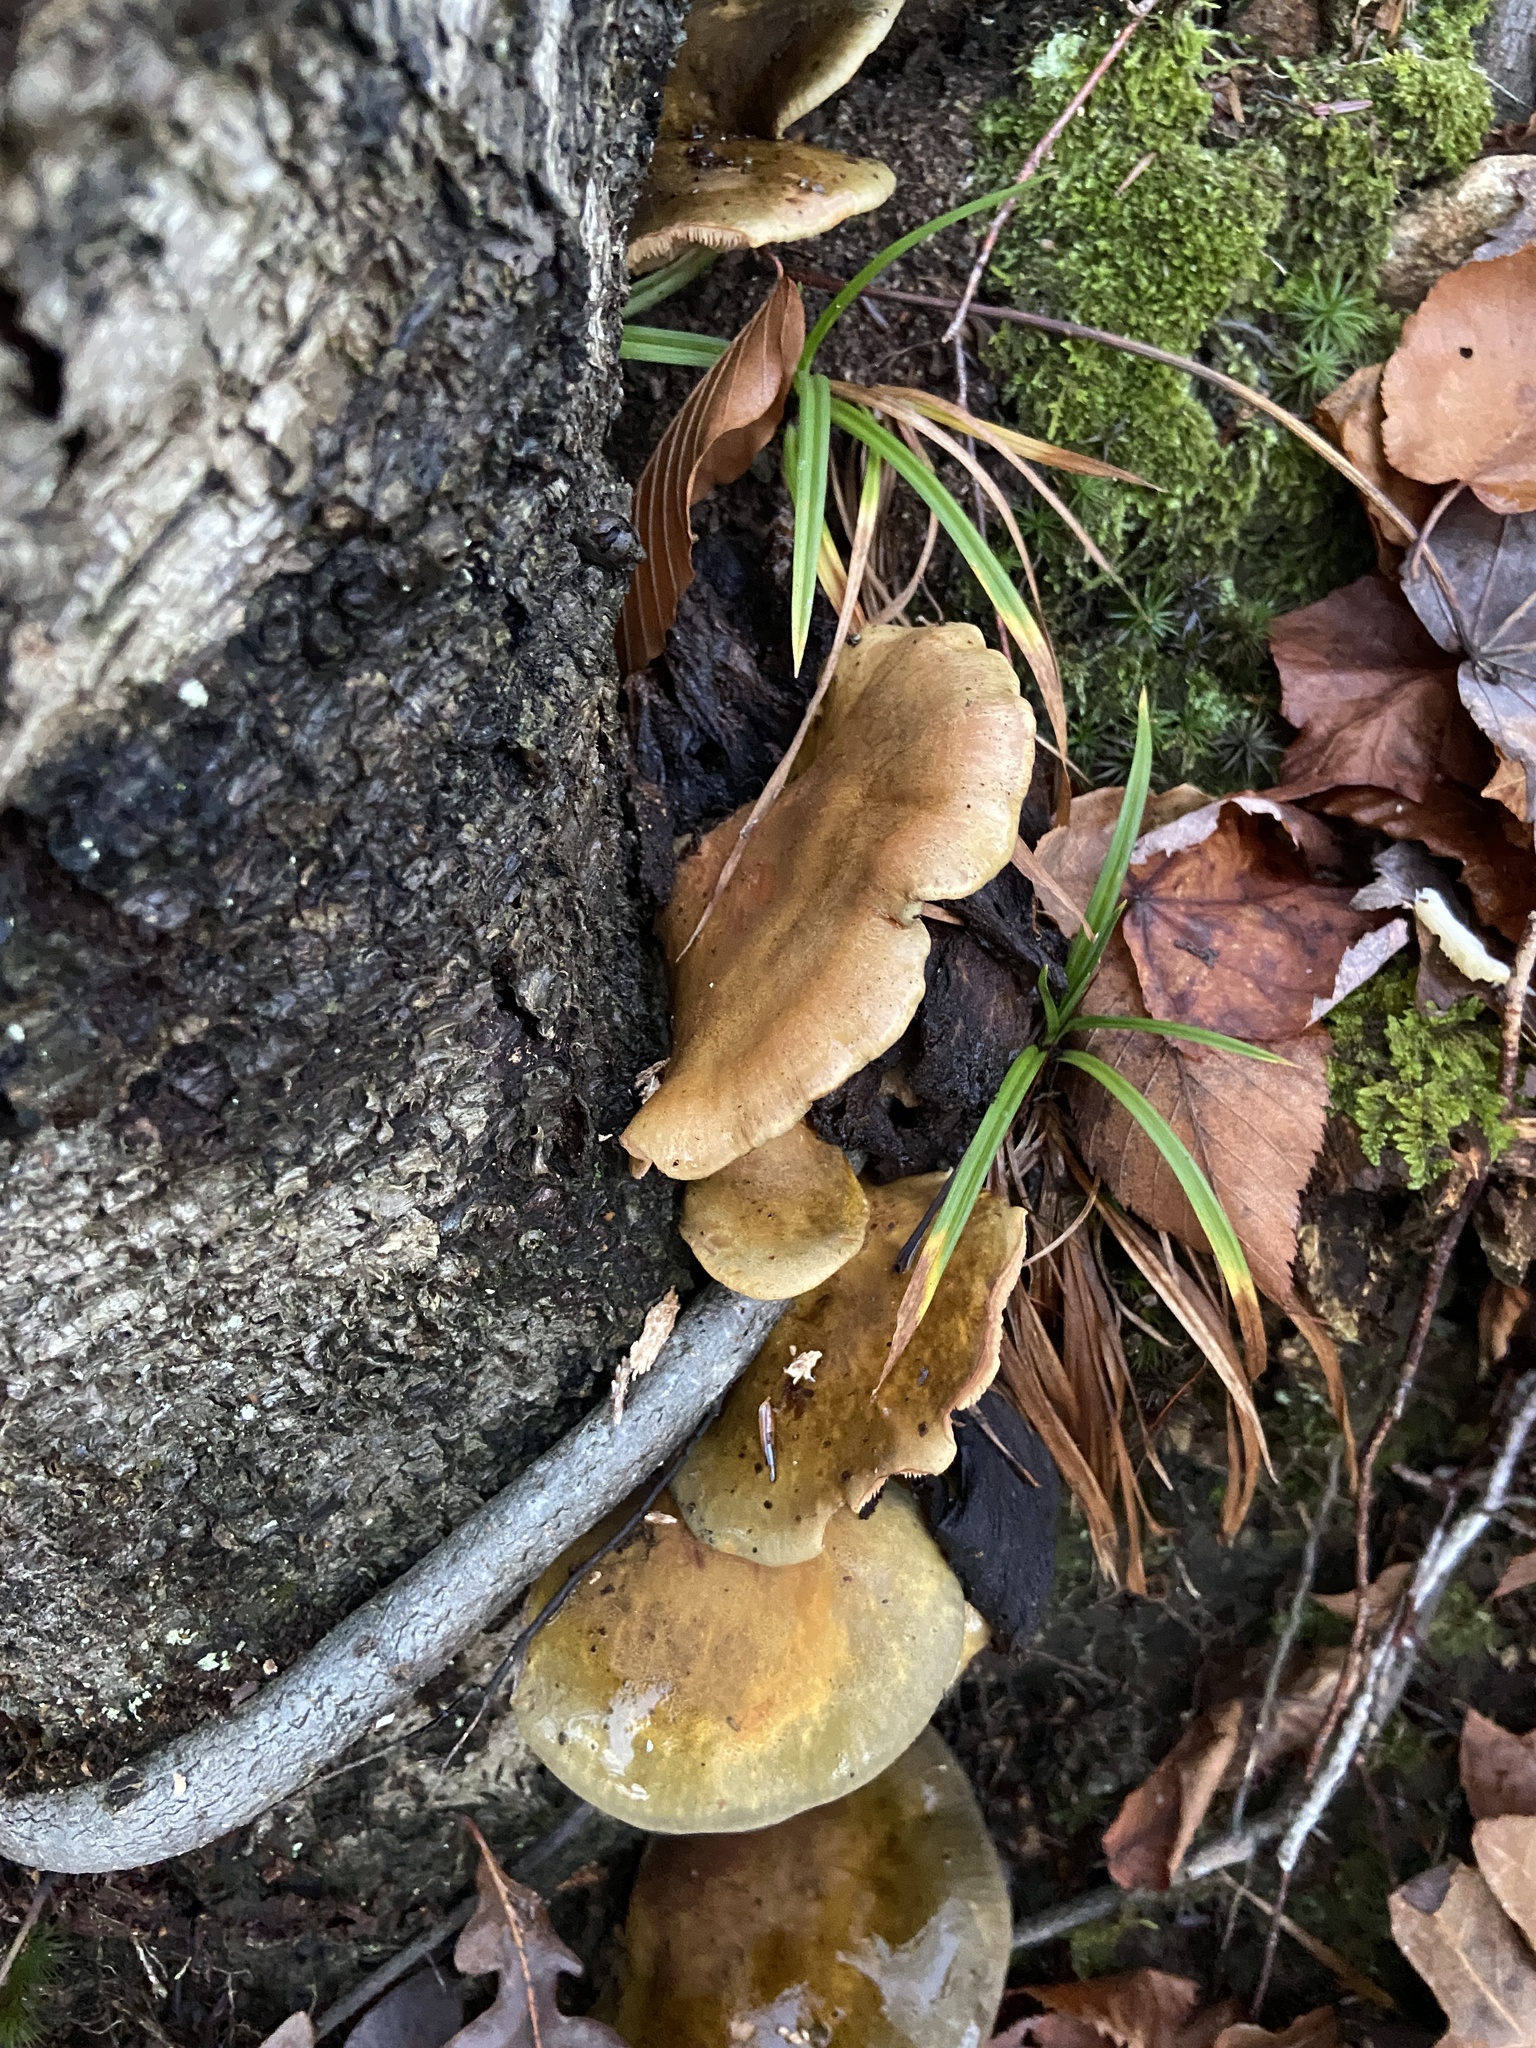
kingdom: Fungi
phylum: Basidiomycota
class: Agaricomycetes
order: Agaricales
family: Sarcomyxaceae
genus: Sarcomyxa
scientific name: Sarcomyxa serotina
